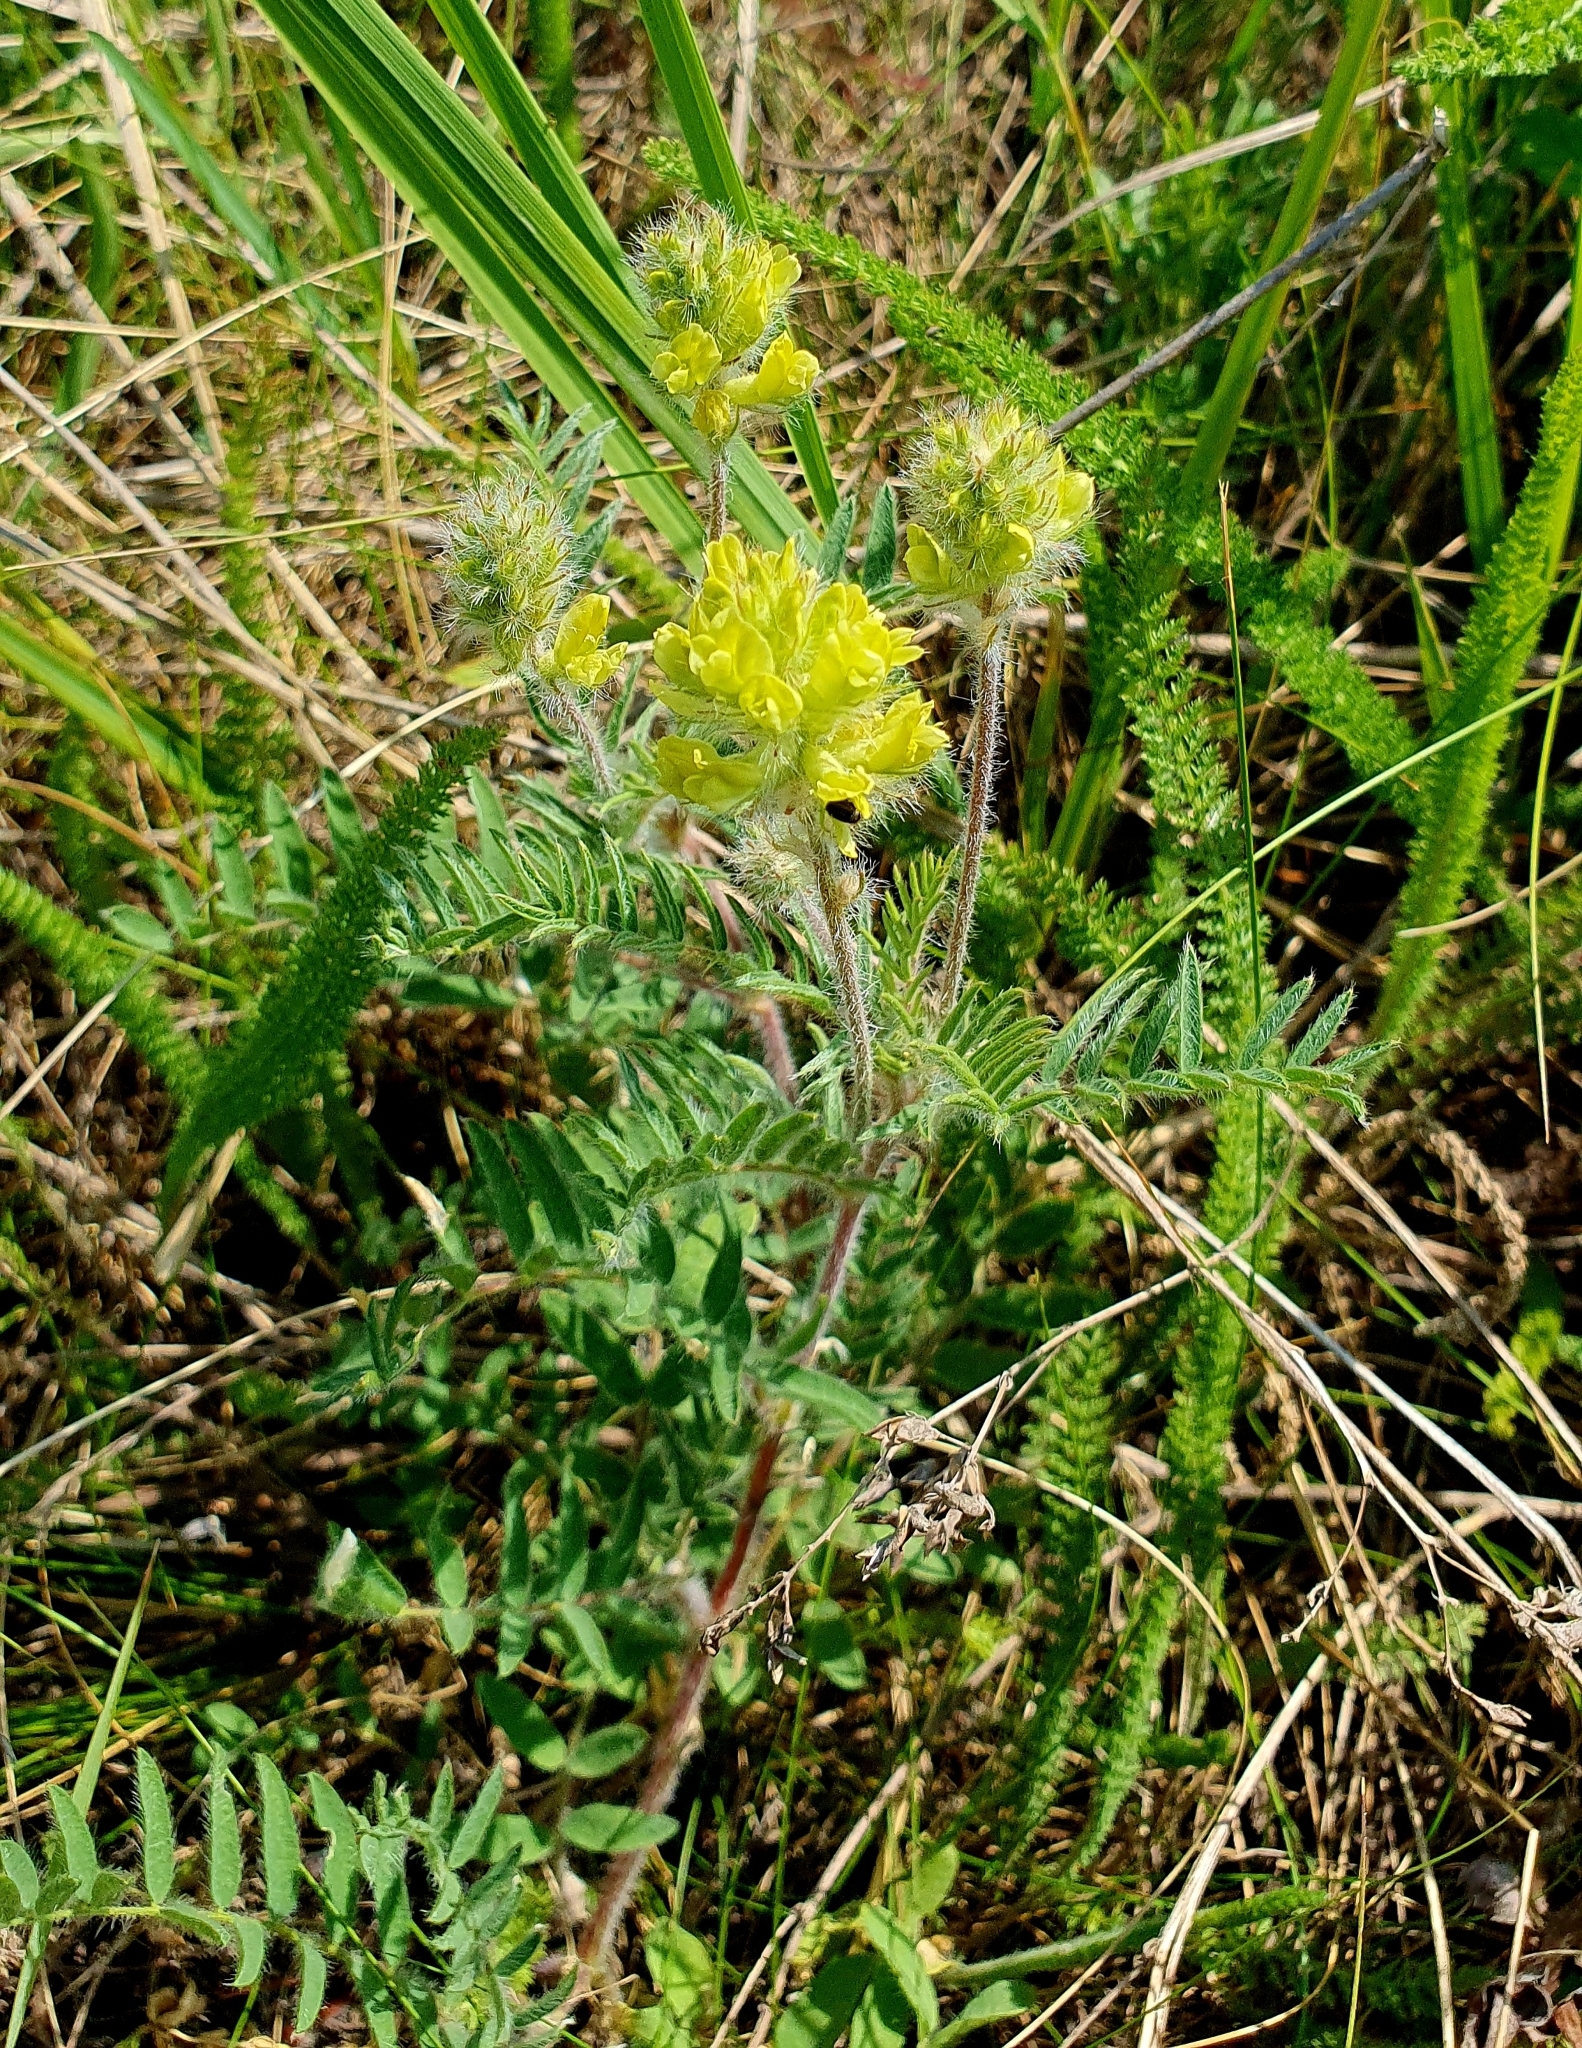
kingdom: Plantae
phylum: Tracheophyta
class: Magnoliopsida
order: Fabales
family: Fabaceae
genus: Oxytropis
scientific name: Oxytropis pilosa
